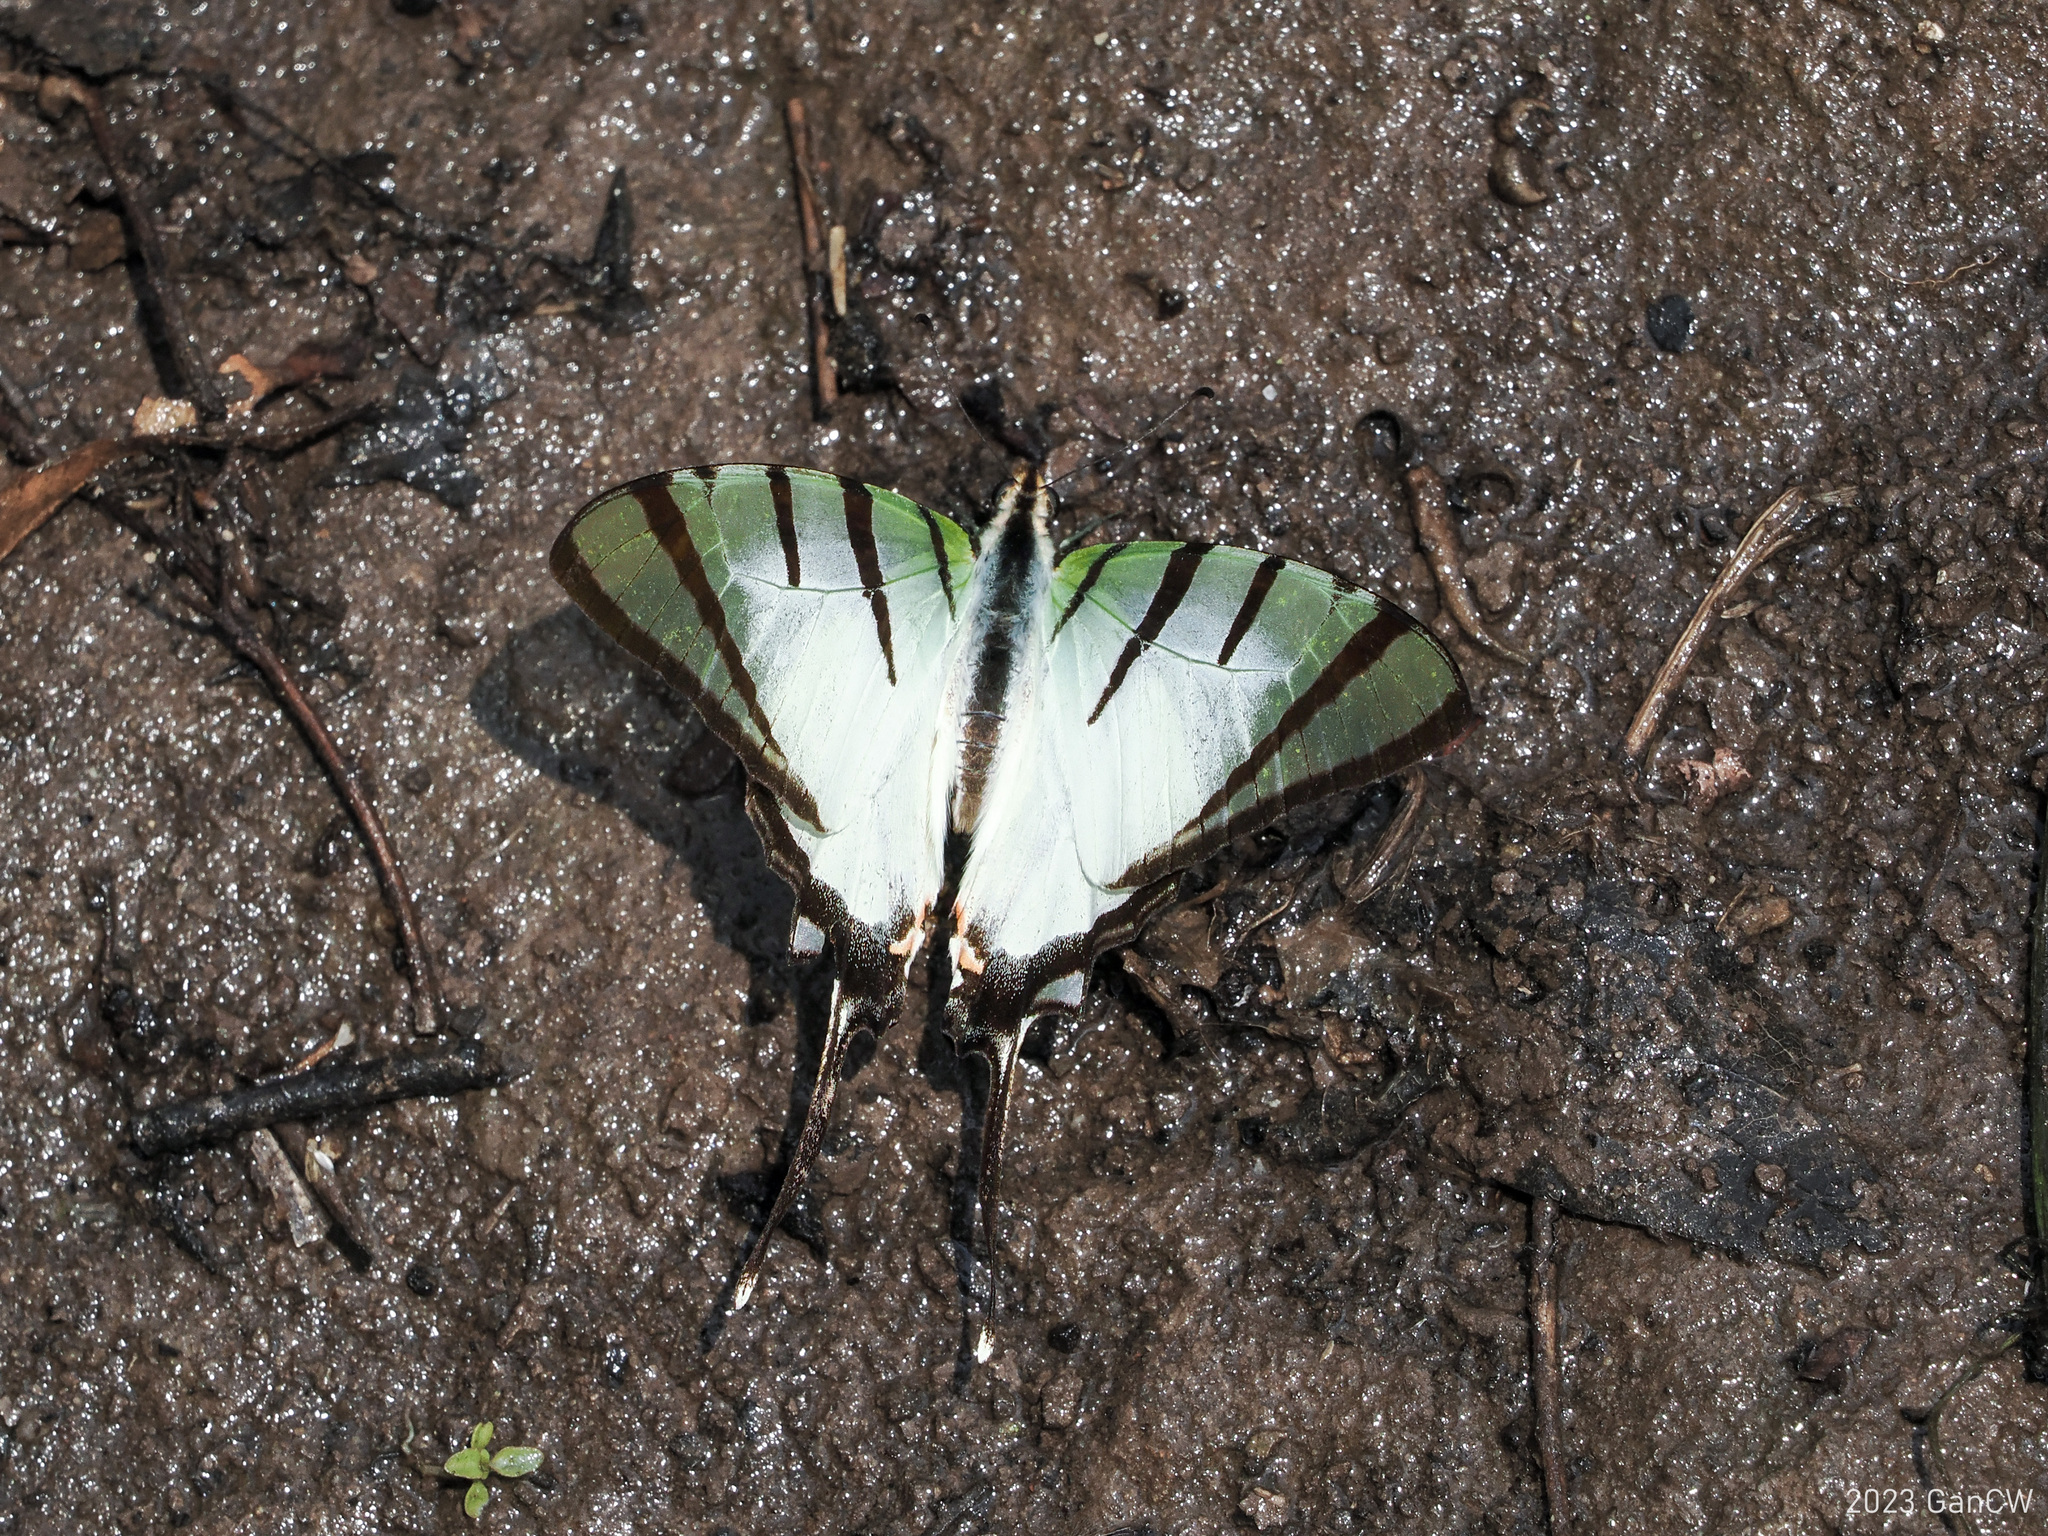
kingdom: Animalia
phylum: Arthropoda
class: Insecta
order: Lepidoptera
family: Papilionidae
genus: Graphium
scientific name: Graphium agetes
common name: Fourbar swordtail
